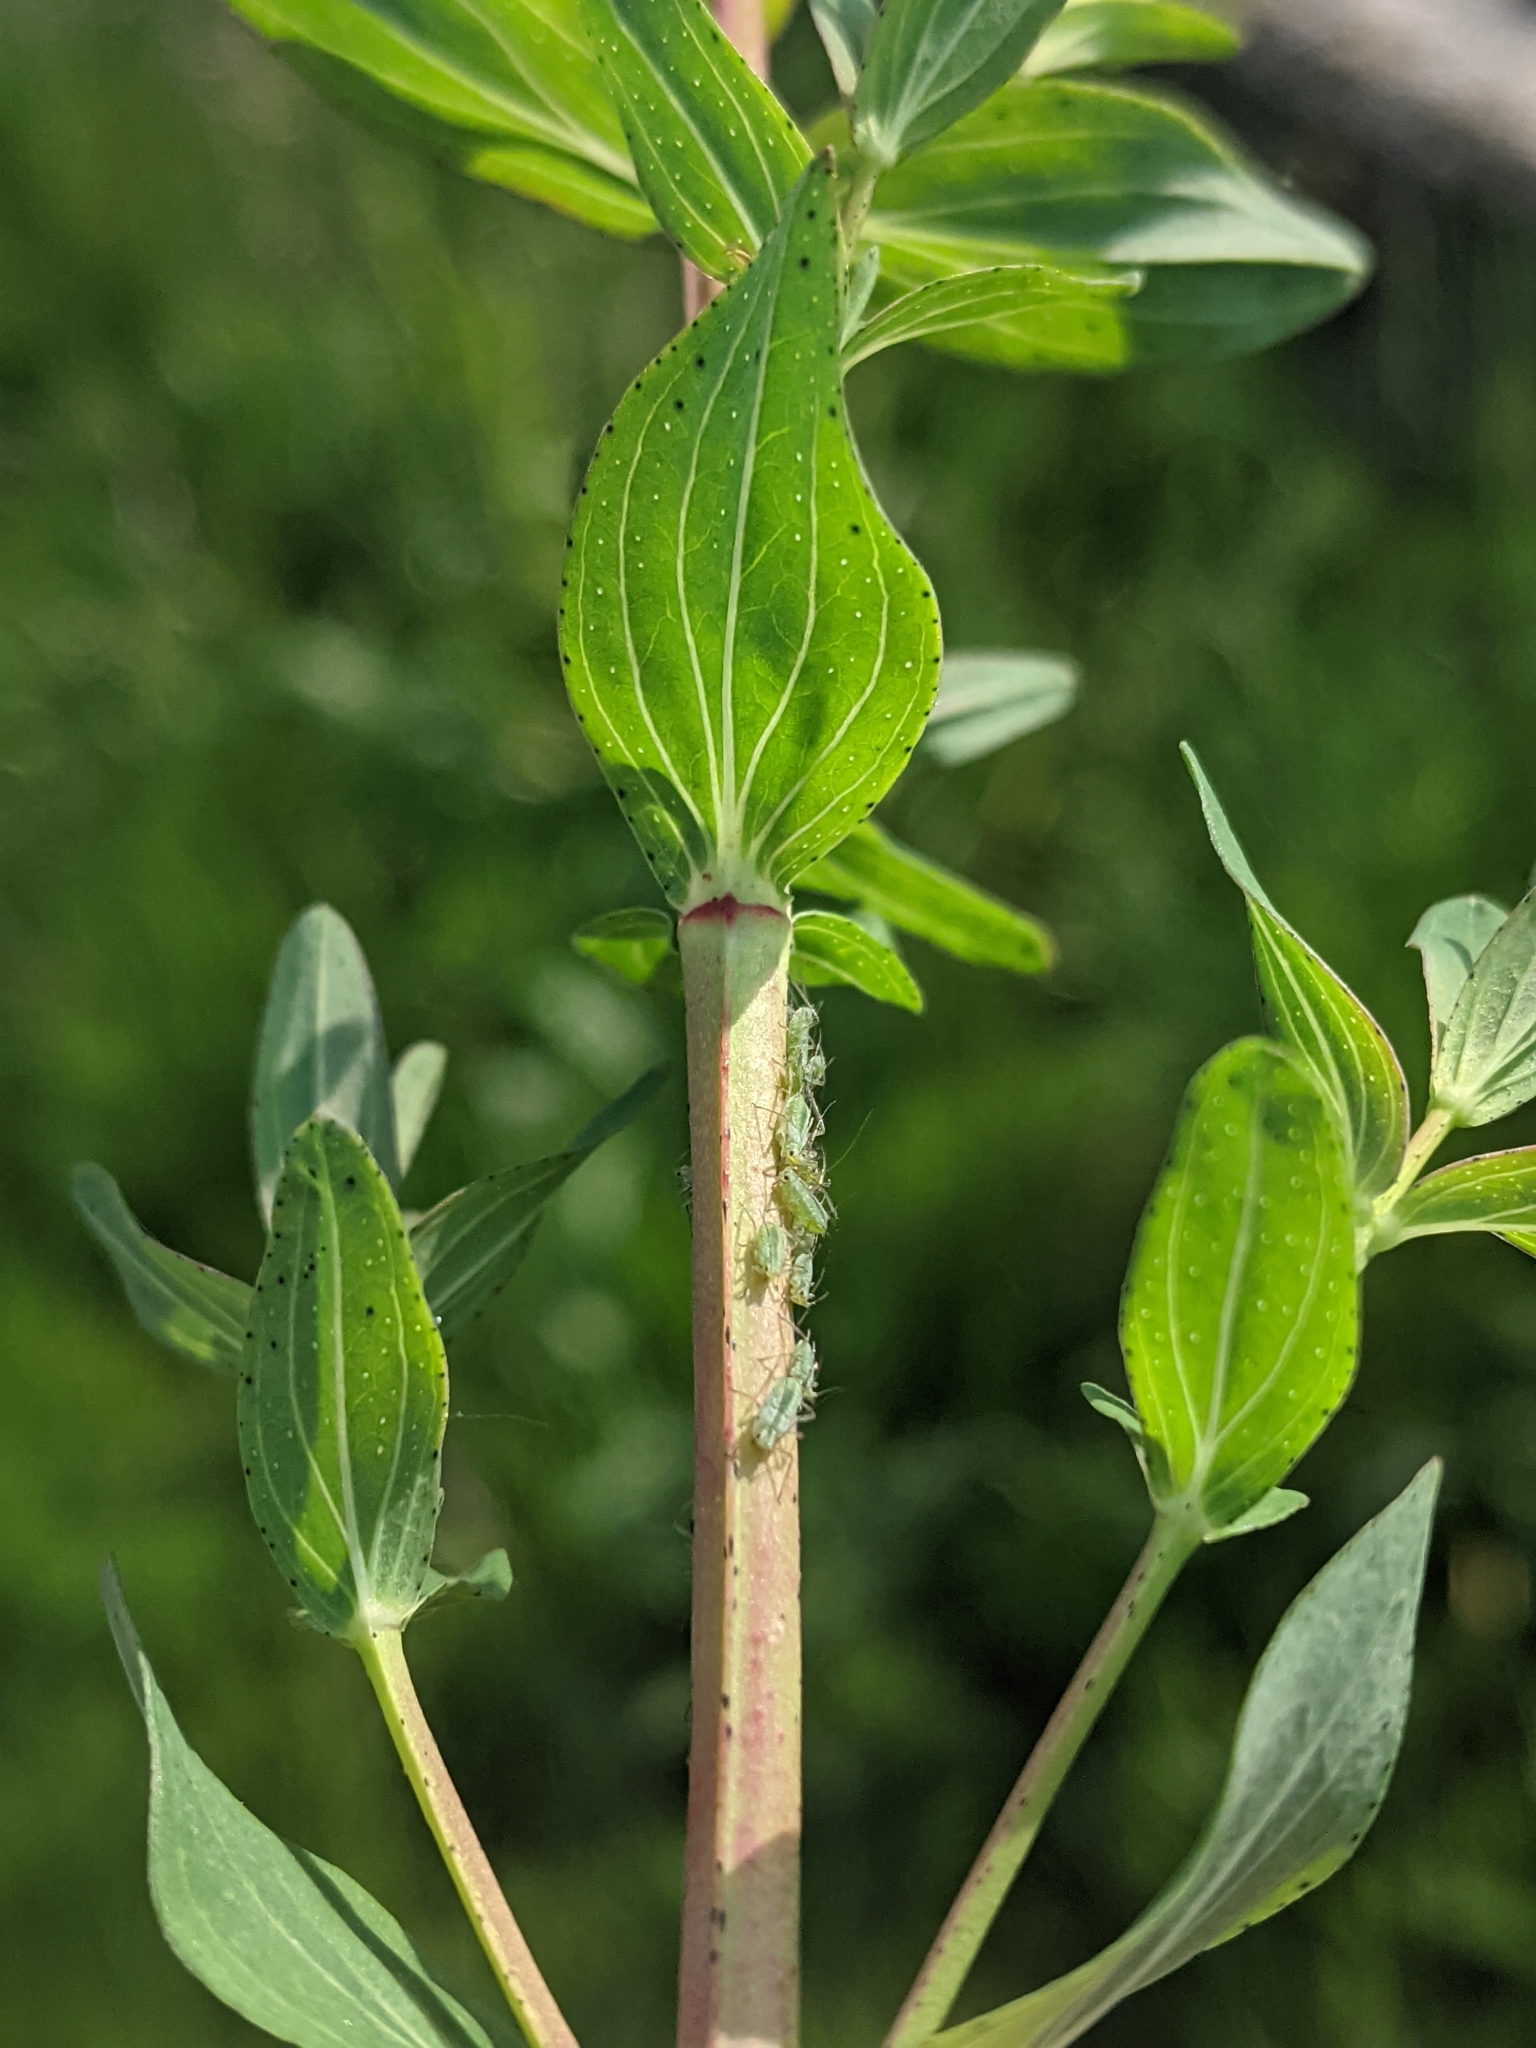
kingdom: Plantae
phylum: Tracheophyta
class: Magnoliopsida
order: Malpighiales
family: Hypericaceae
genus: Hypericum
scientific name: Hypericum perforatum
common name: Common st. johnswort
